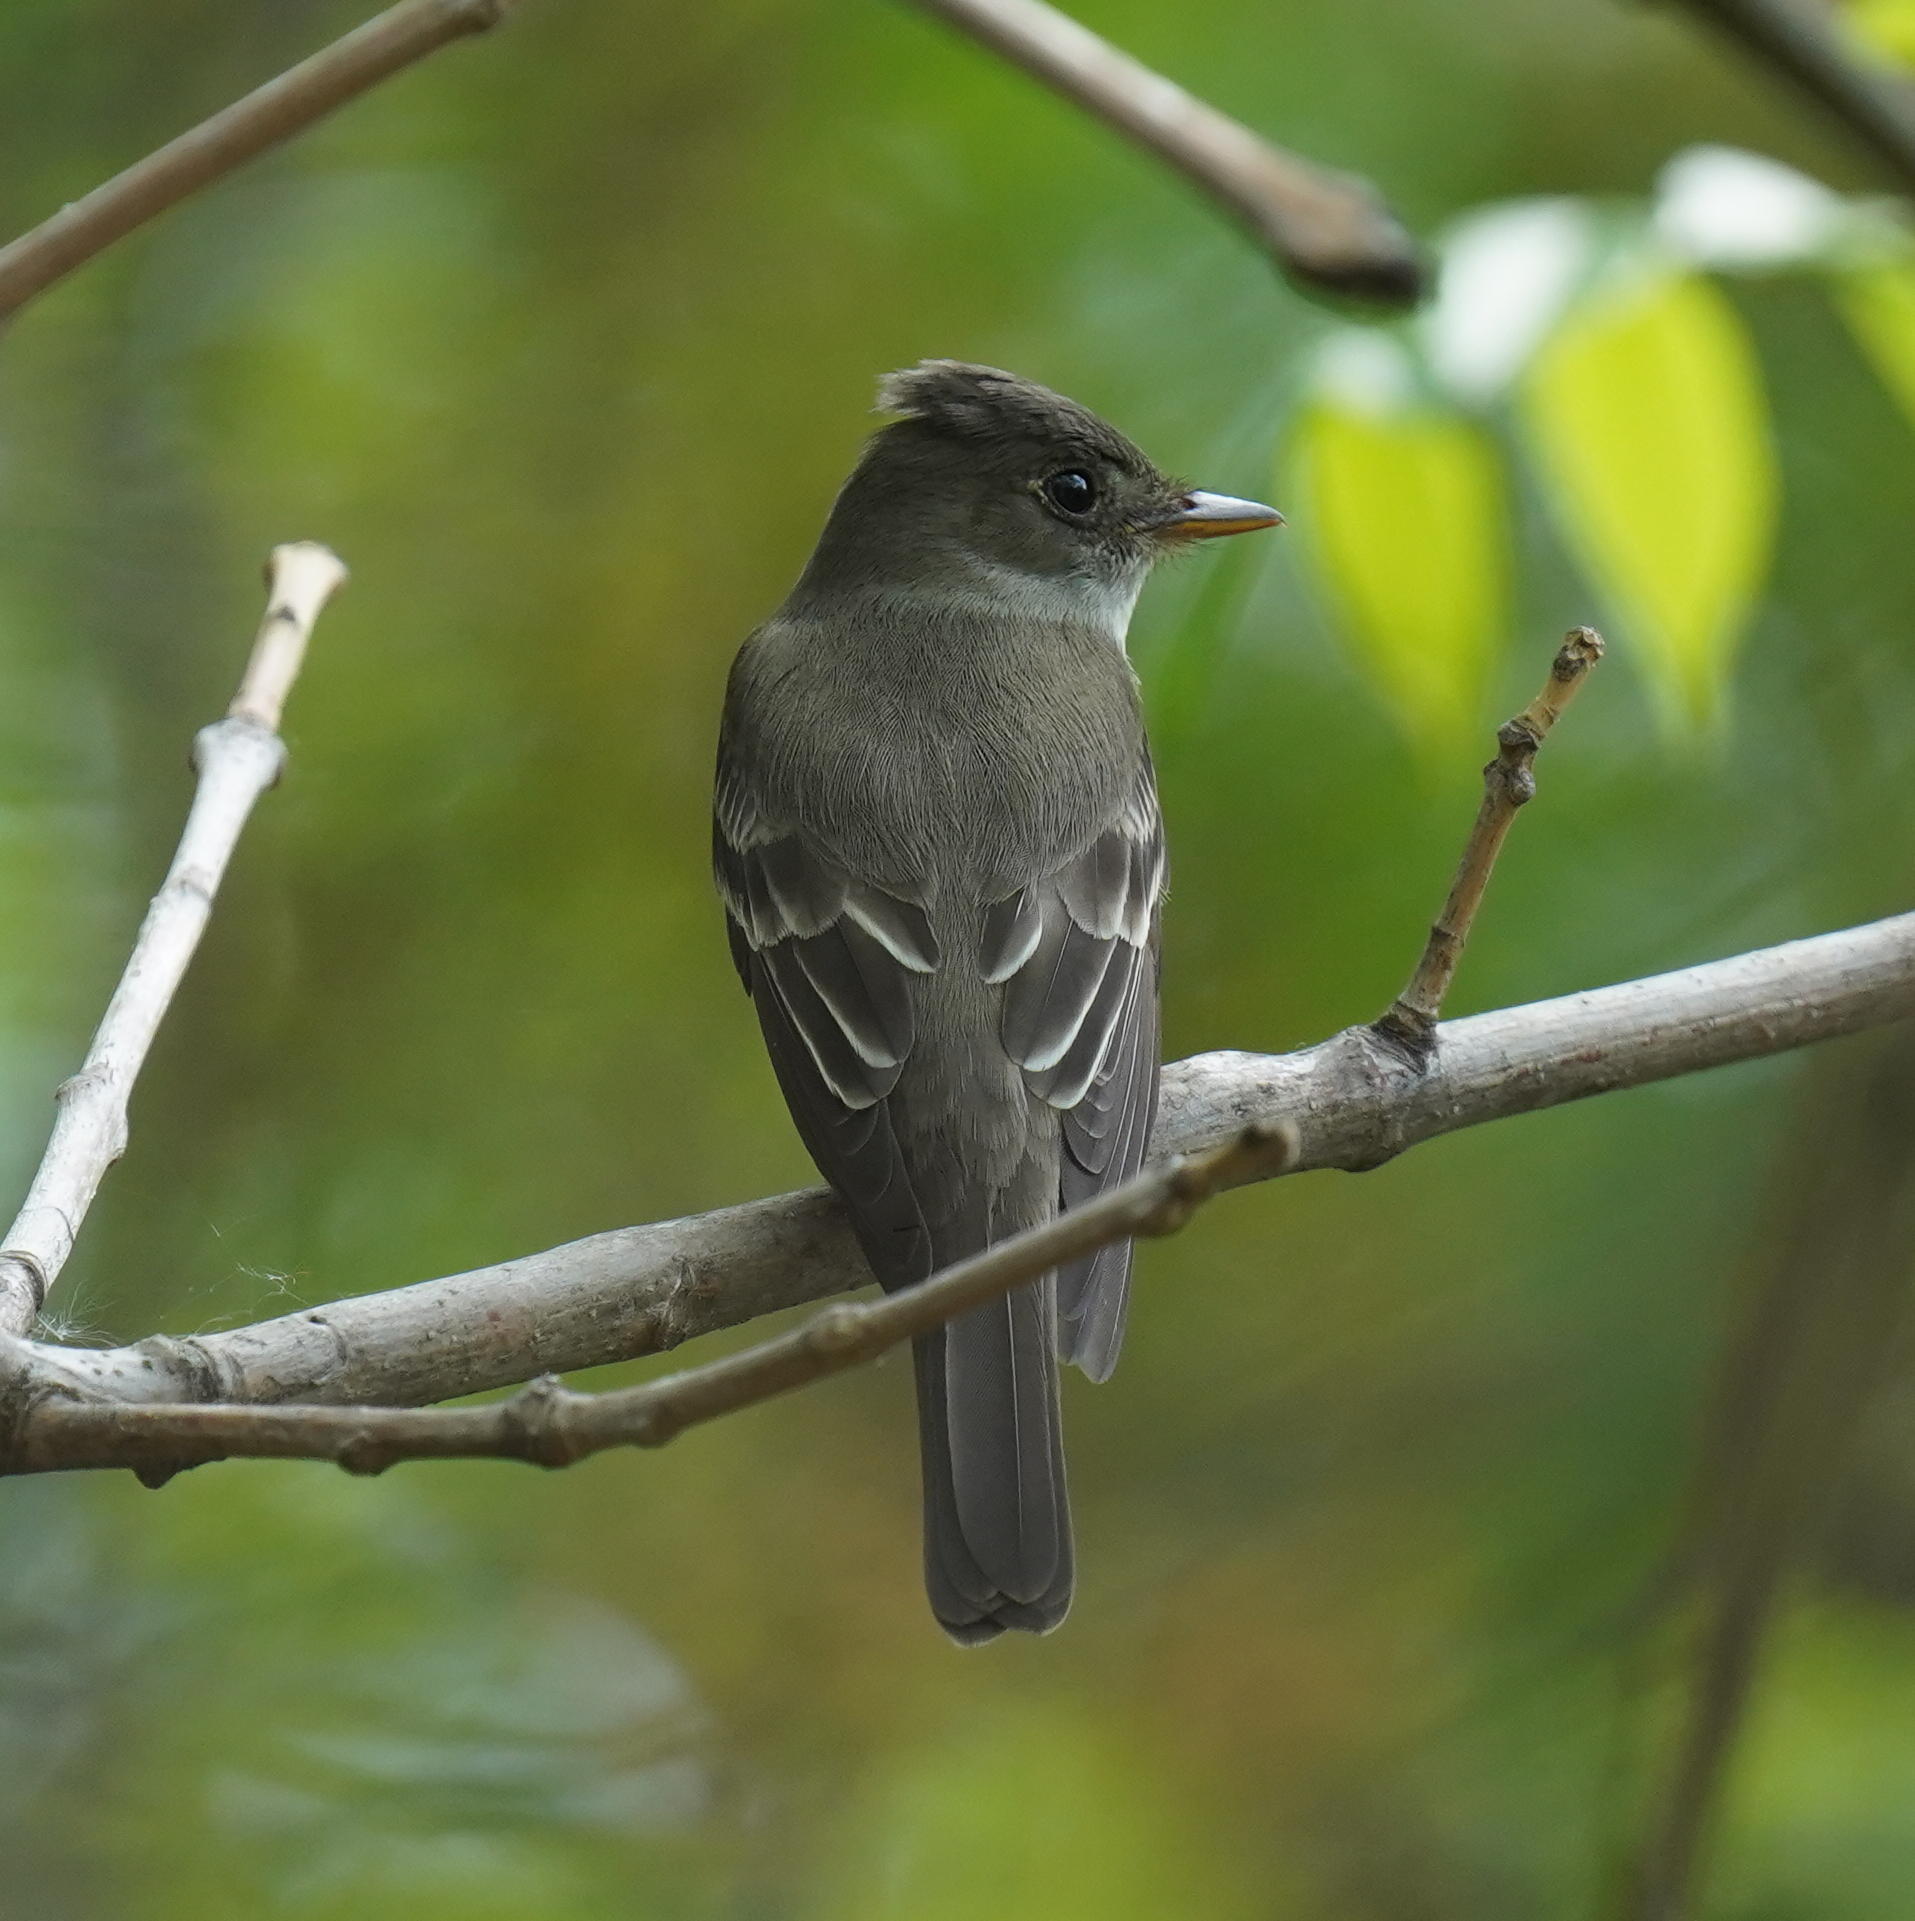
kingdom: Animalia
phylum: Chordata
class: Aves
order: Passeriformes
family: Tyrannidae
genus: Contopus
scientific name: Contopus virens
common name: Eastern wood-pewee
